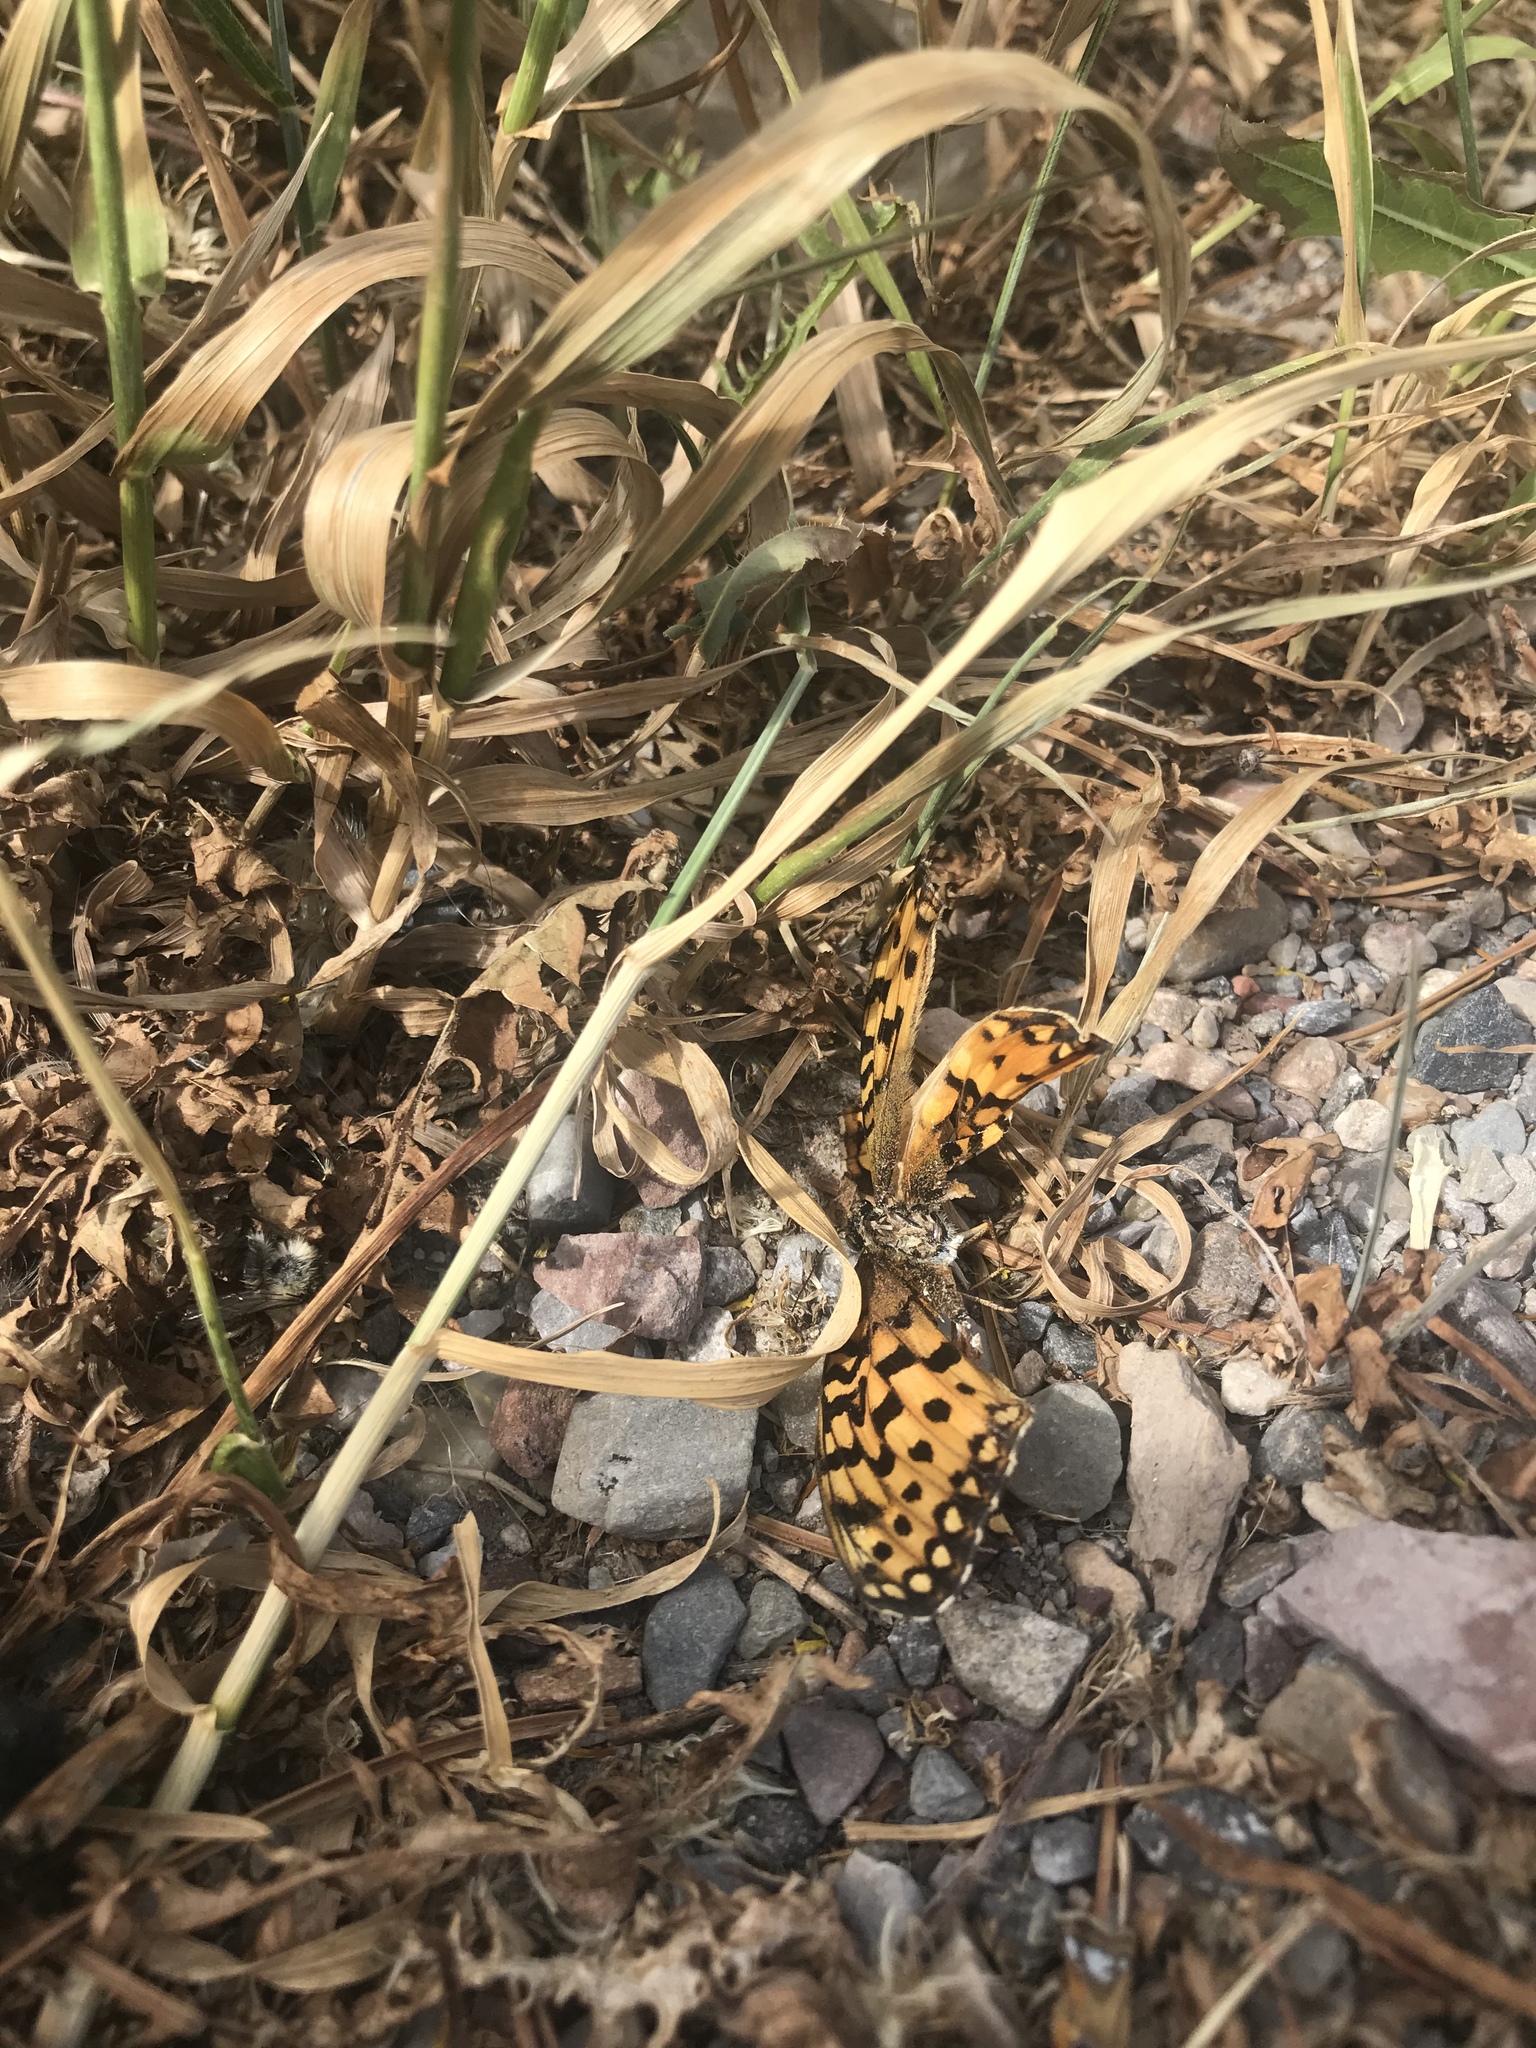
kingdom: Animalia
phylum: Arthropoda
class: Insecta
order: Lepidoptera
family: Nymphalidae
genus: Speyeria
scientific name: Speyeria mormonia
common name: Mormon fritillary
